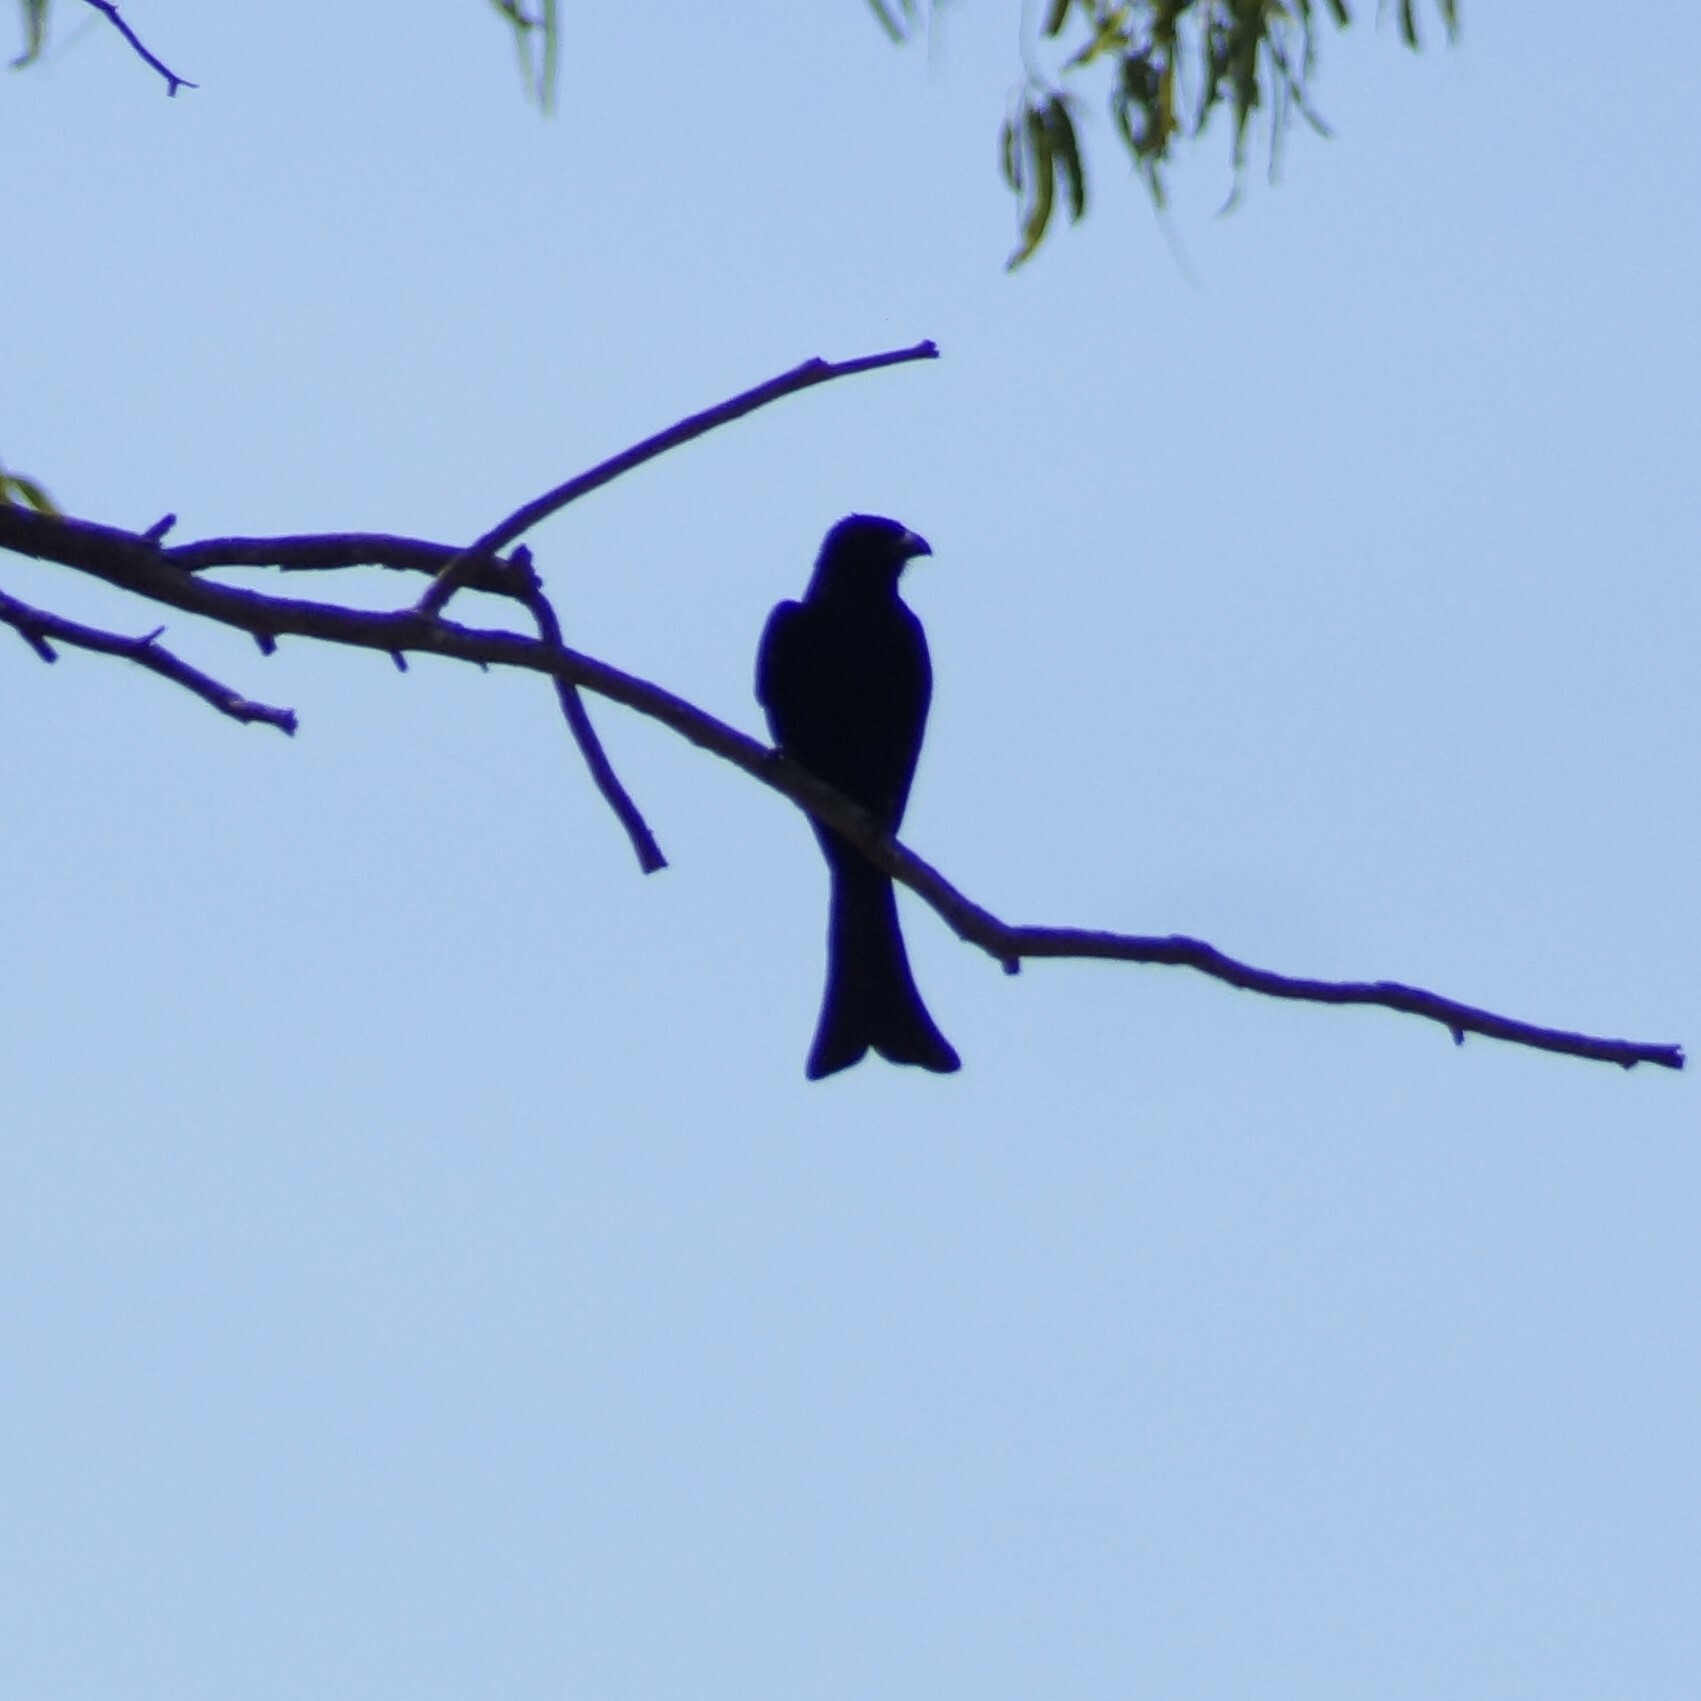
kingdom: Animalia
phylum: Chordata
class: Aves
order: Passeriformes
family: Dicruridae
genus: Dicrurus
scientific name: Dicrurus bracteatus
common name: Spangled drongo
